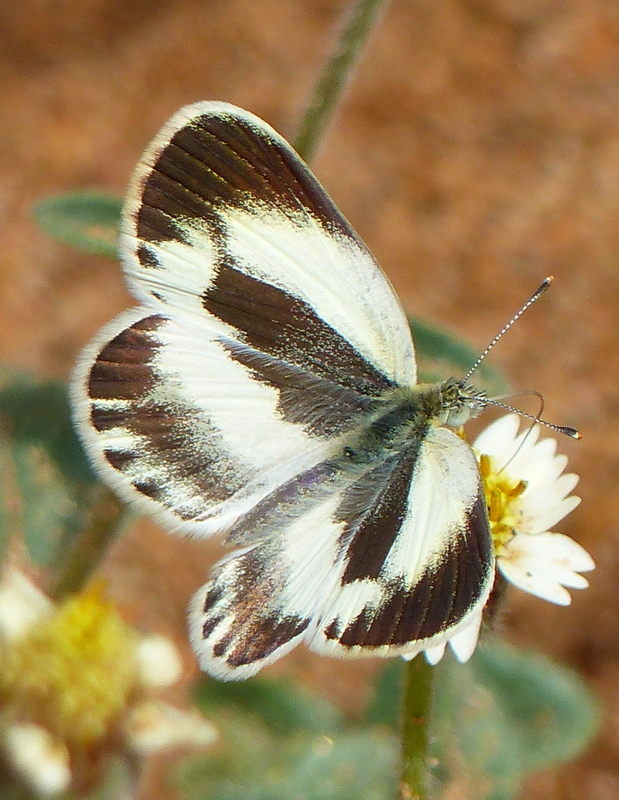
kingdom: Animalia
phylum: Arthropoda
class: Insecta
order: Lepidoptera
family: Pieridae
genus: Colotis
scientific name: Colotis daira
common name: Black-marked orange tip
